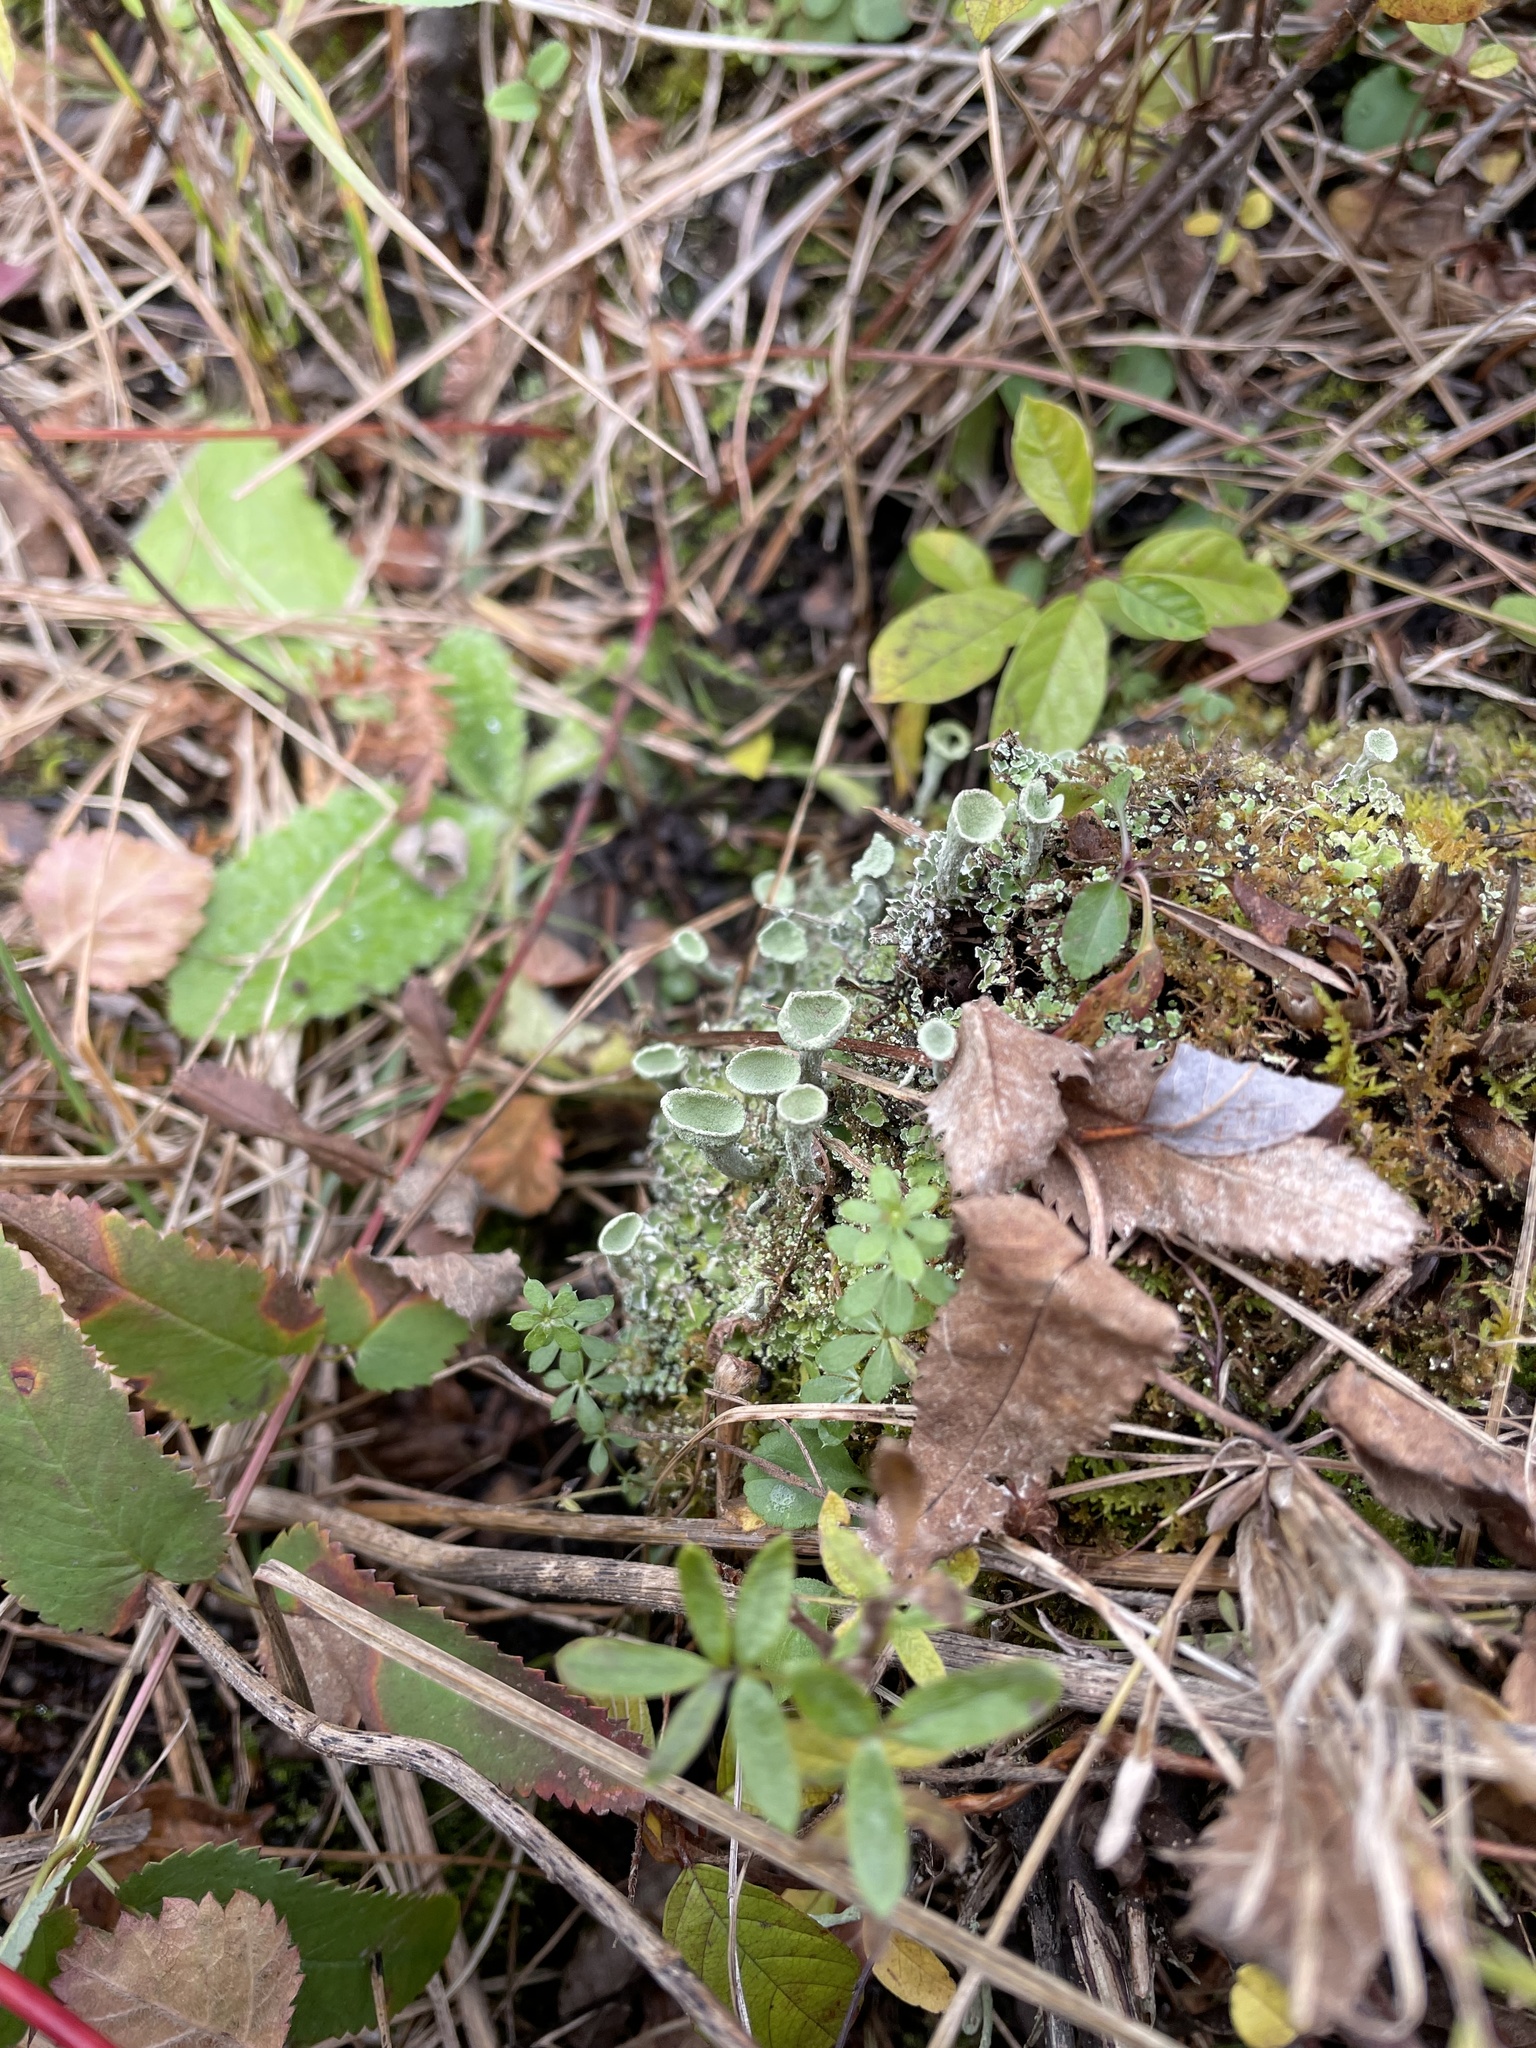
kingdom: Fungi
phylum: Ascomycota
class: Lecanoromycetes
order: Lecanorales
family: Cladoniaceae
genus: Cladonia
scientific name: Cladonia fimbriata
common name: Powdered trumpet lichen
